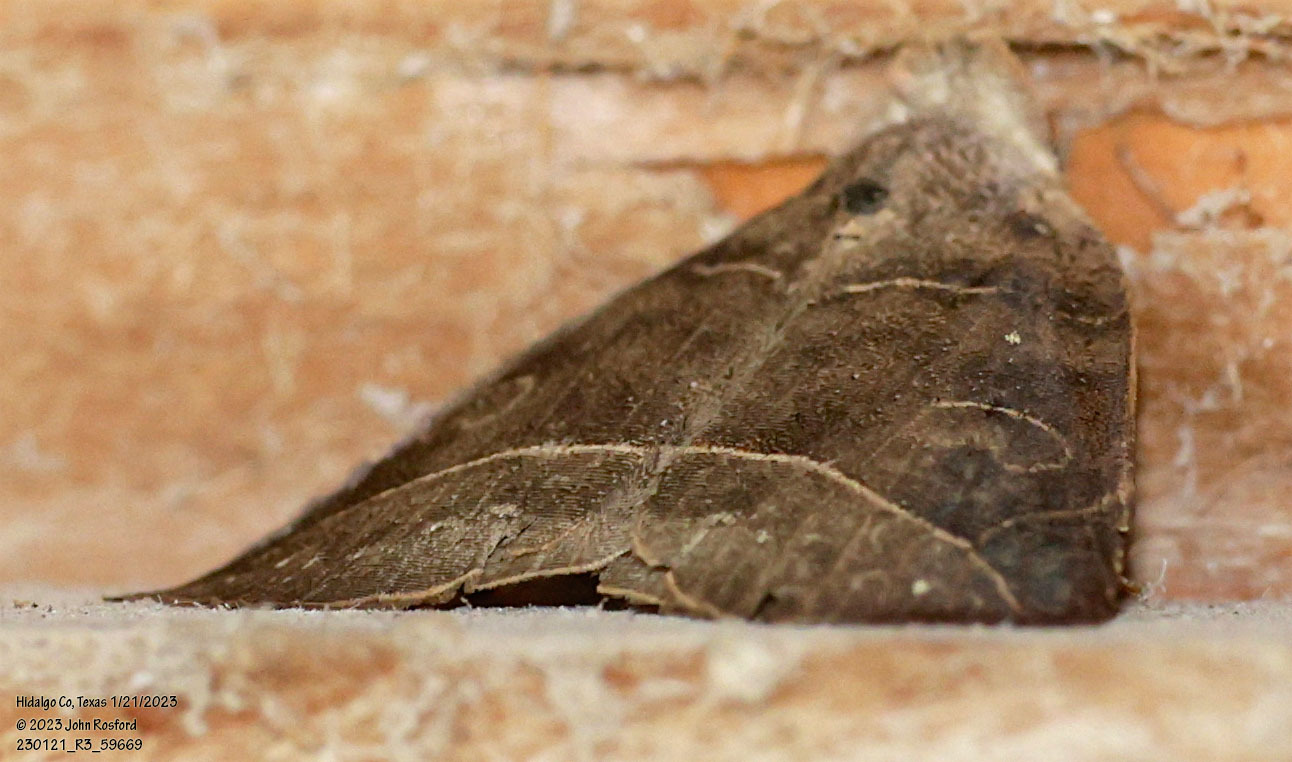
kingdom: Animalia
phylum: Arthropoda
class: Insecta
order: Lepidoptera
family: Erebidae
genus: Isogona
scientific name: Isogona tenuis
